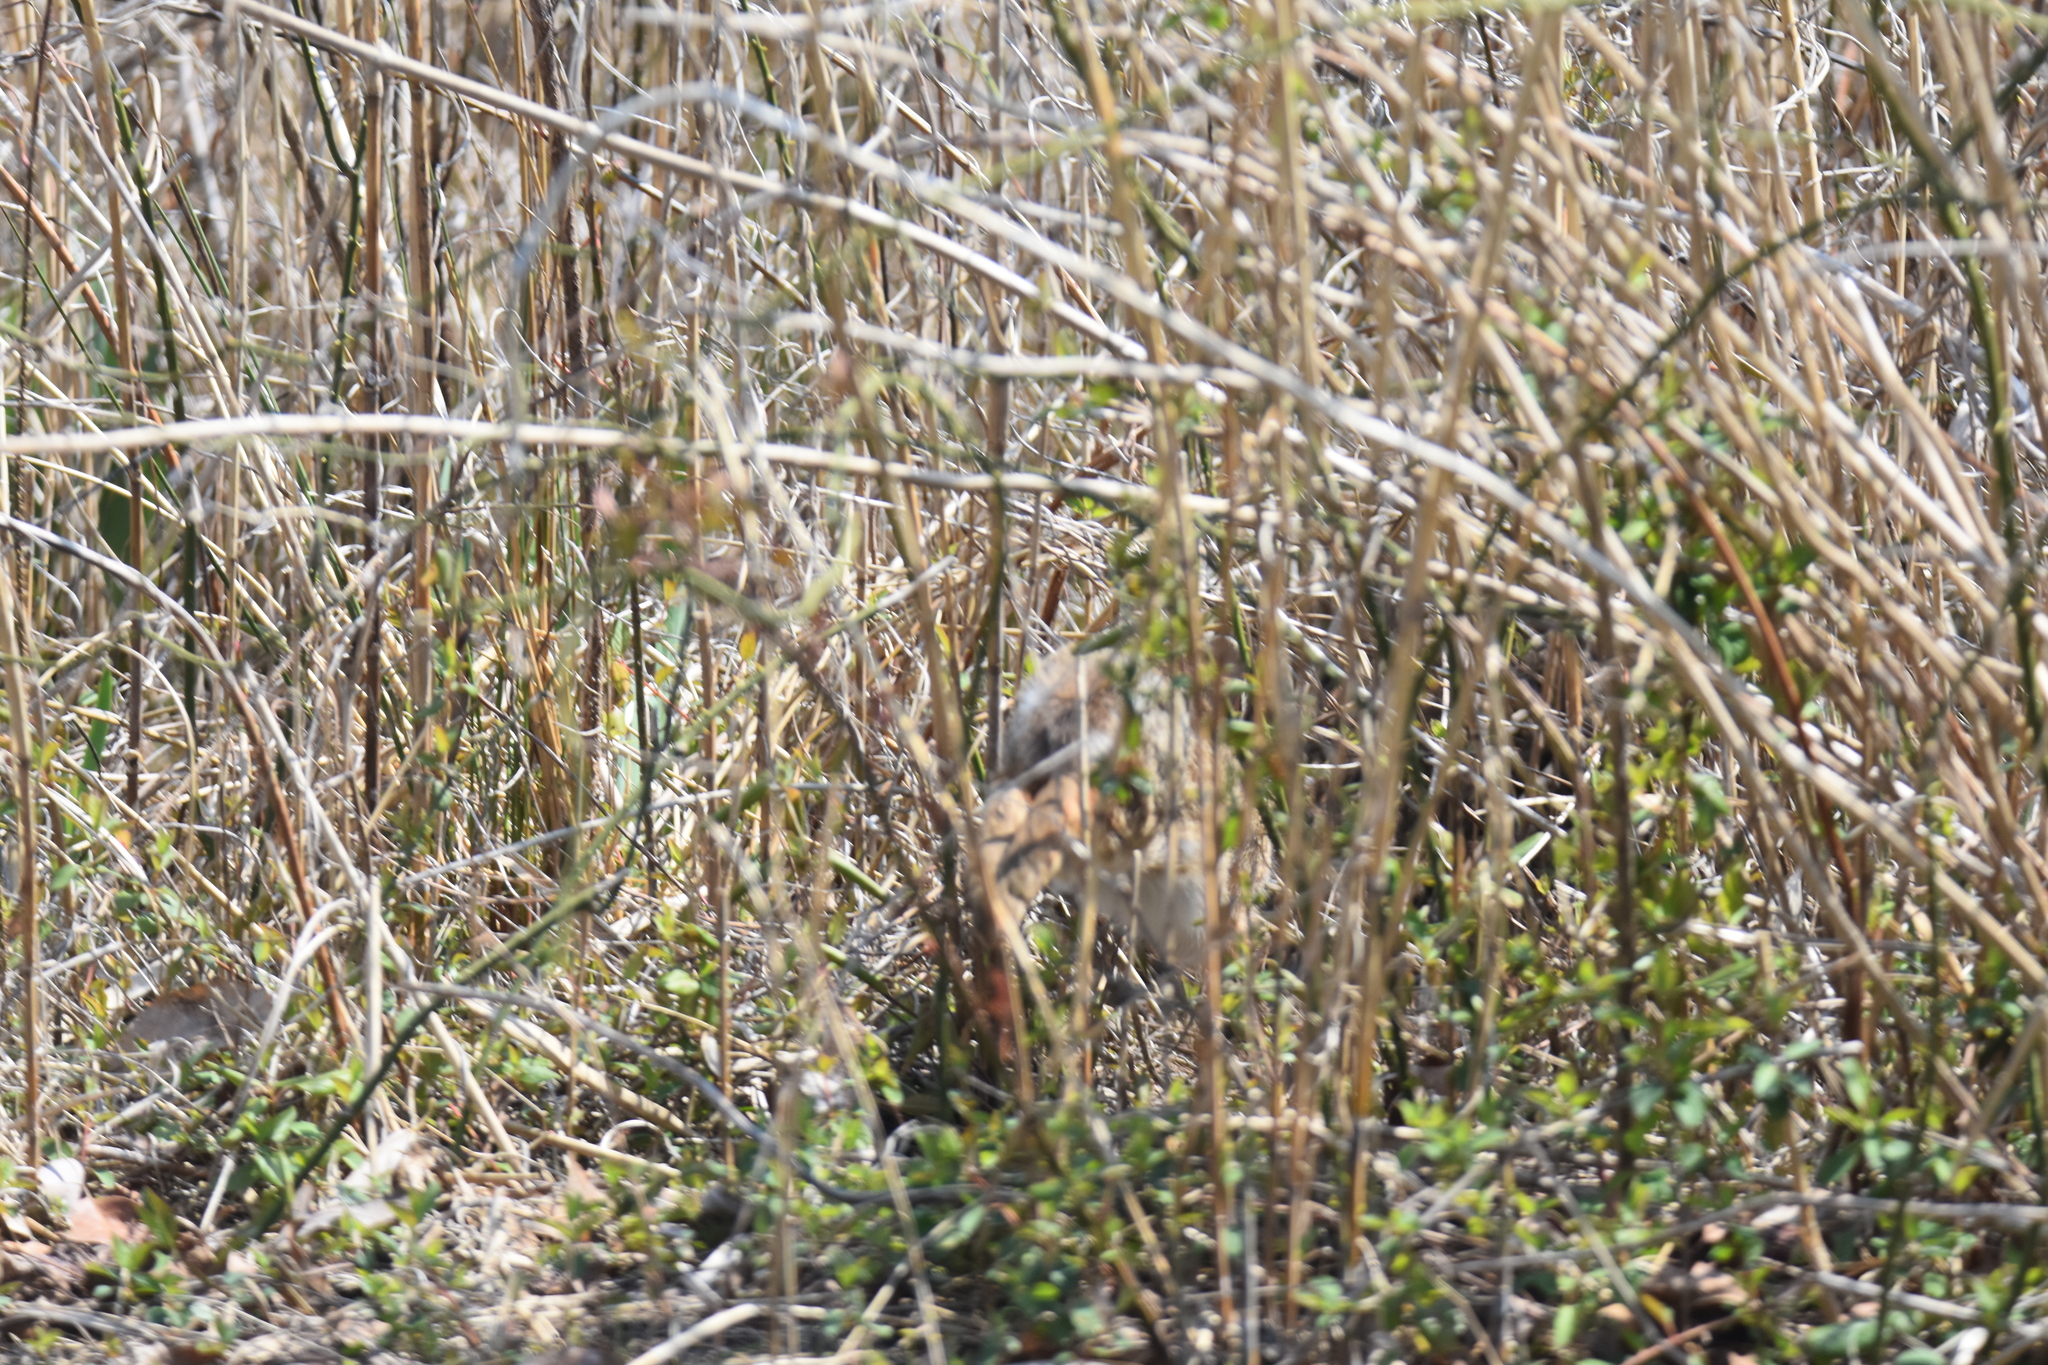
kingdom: Animalia
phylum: Chordata
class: Mammalia
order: Lagomorpha
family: Leporidae
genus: Sylvilagus
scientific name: Sylvilagus floridanus
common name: Eastern cottontail
